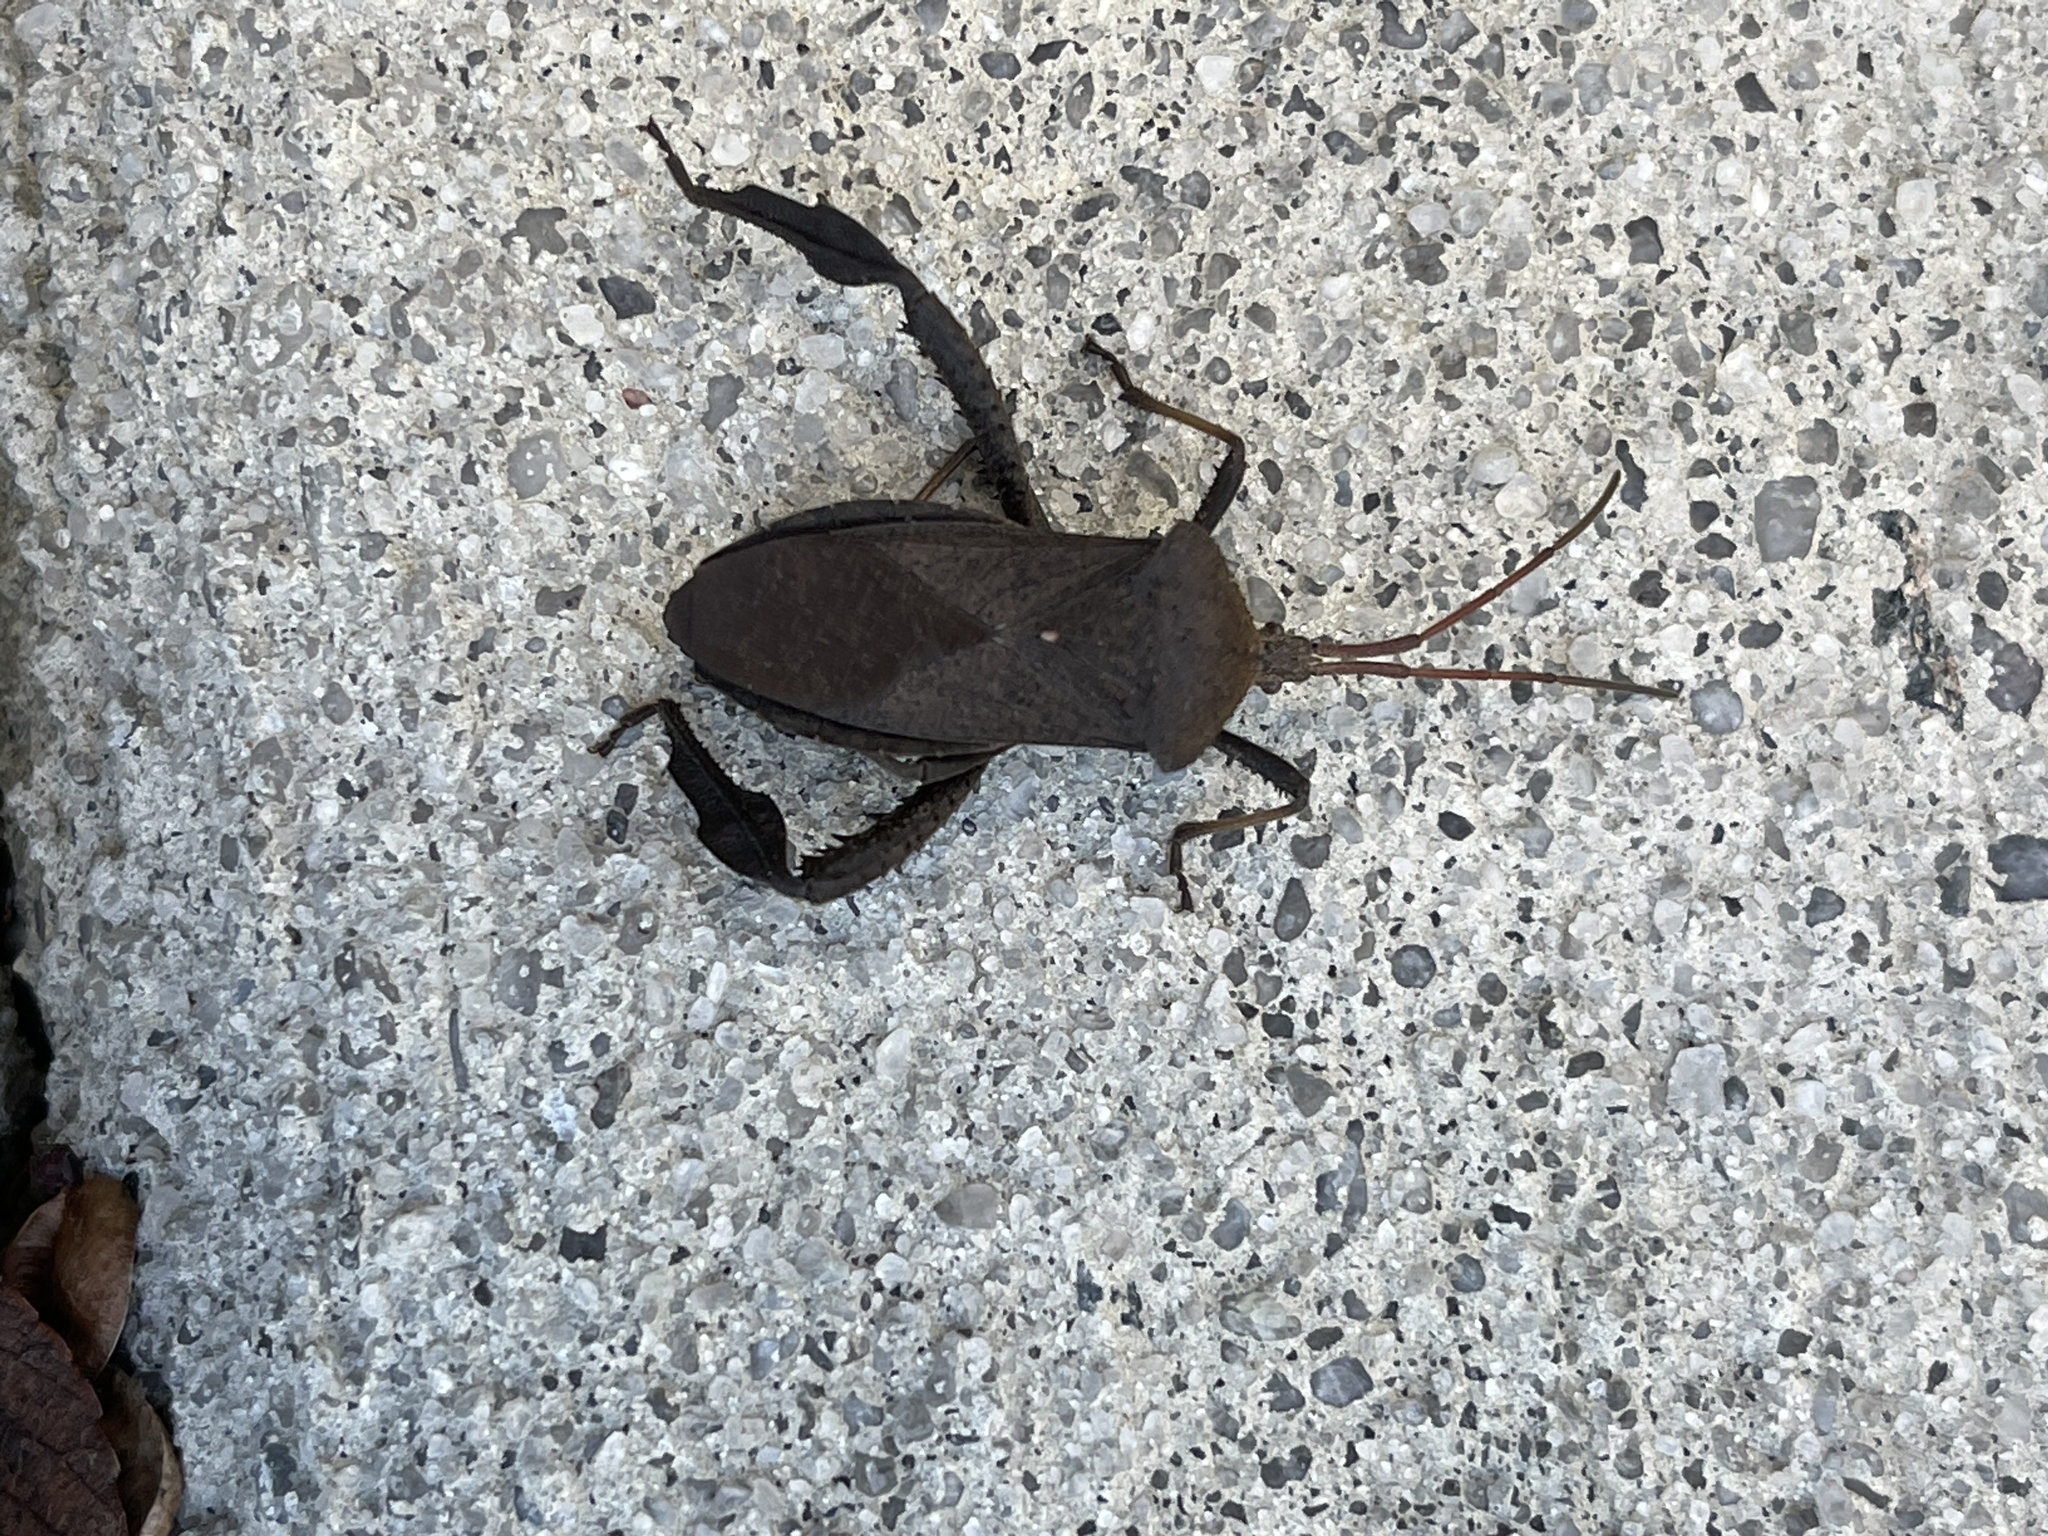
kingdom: Animalia
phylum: Arthropoda
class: Insecta
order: Hemiptera
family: Coreidae
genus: Acanthocephala
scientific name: Acanthocephala femorata
